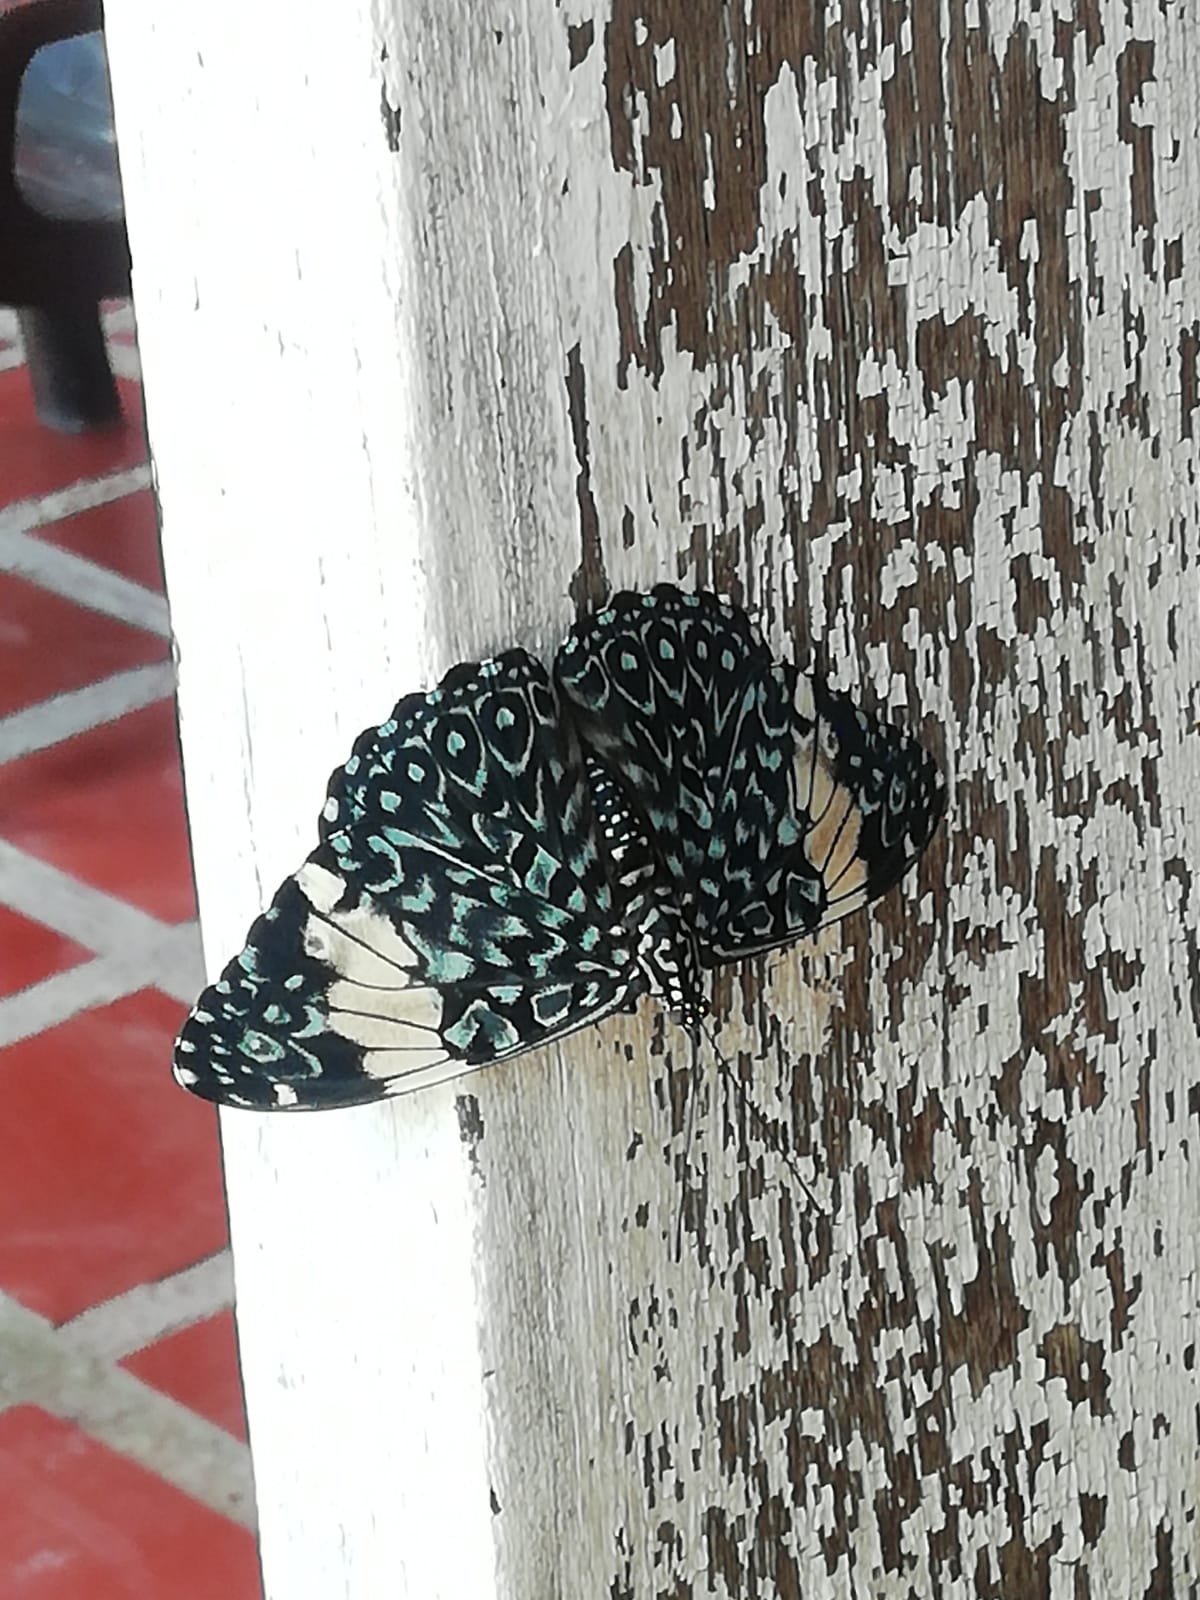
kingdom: Animalia
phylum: Arthropoda
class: Insecta
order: Lepidoptera
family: Nymphalidae
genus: Hamadryas
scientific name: Hamadryas amphinome
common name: Red cracker
